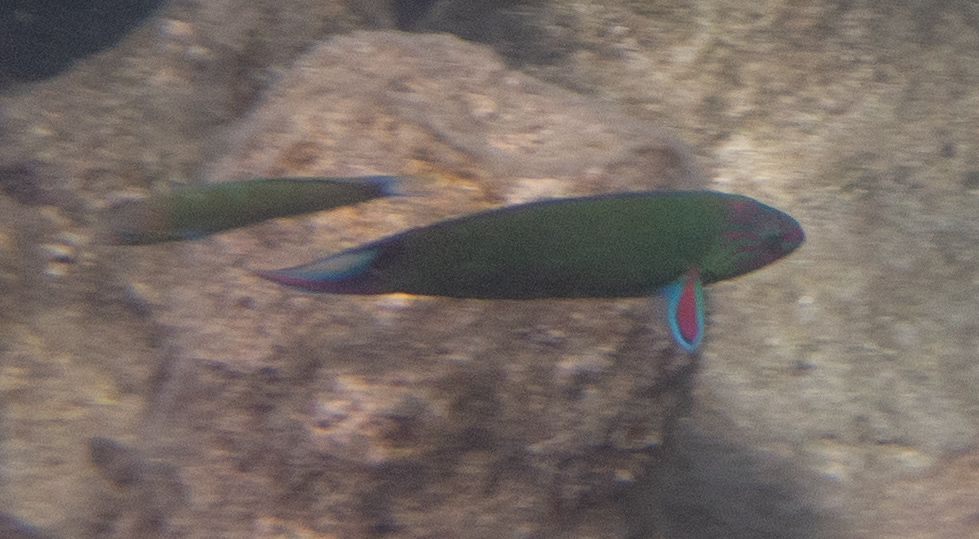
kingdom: Animalia
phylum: Chordata
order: Perciformes
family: Labridae
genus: Thalassoma
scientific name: Thalassoma lunare
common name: Blue wrasse
